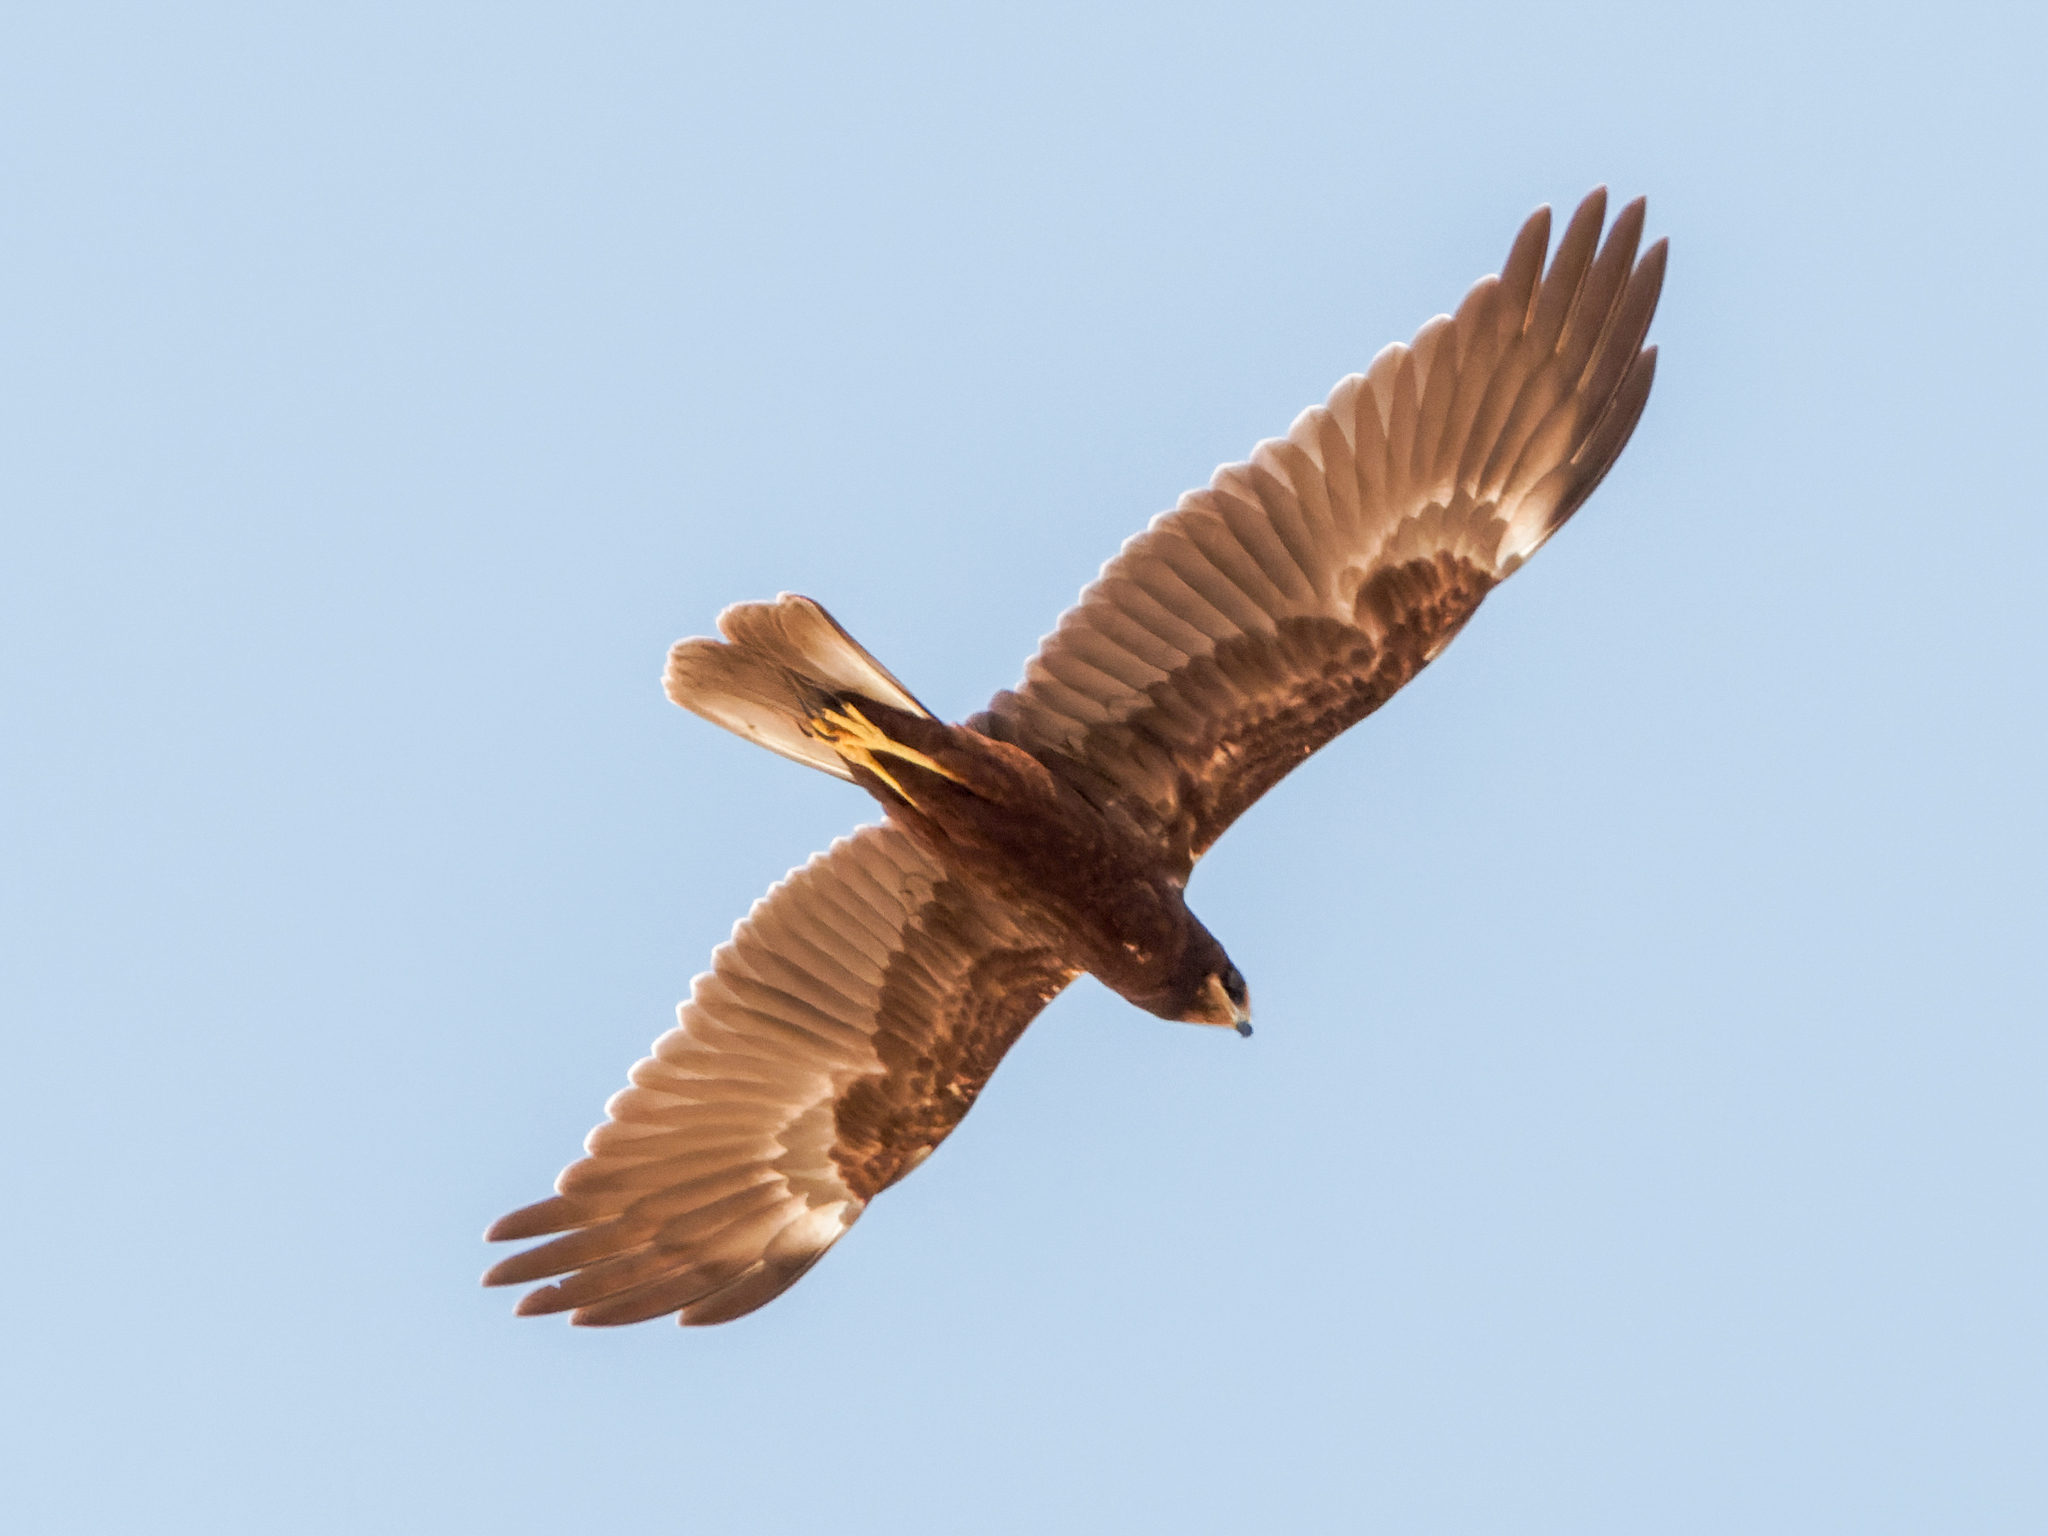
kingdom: Animalia
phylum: Chordata
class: Aves
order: Accipitriformes
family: Accipitridae
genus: Circus
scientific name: Circus aeruginosus
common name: Western marsh harrier
